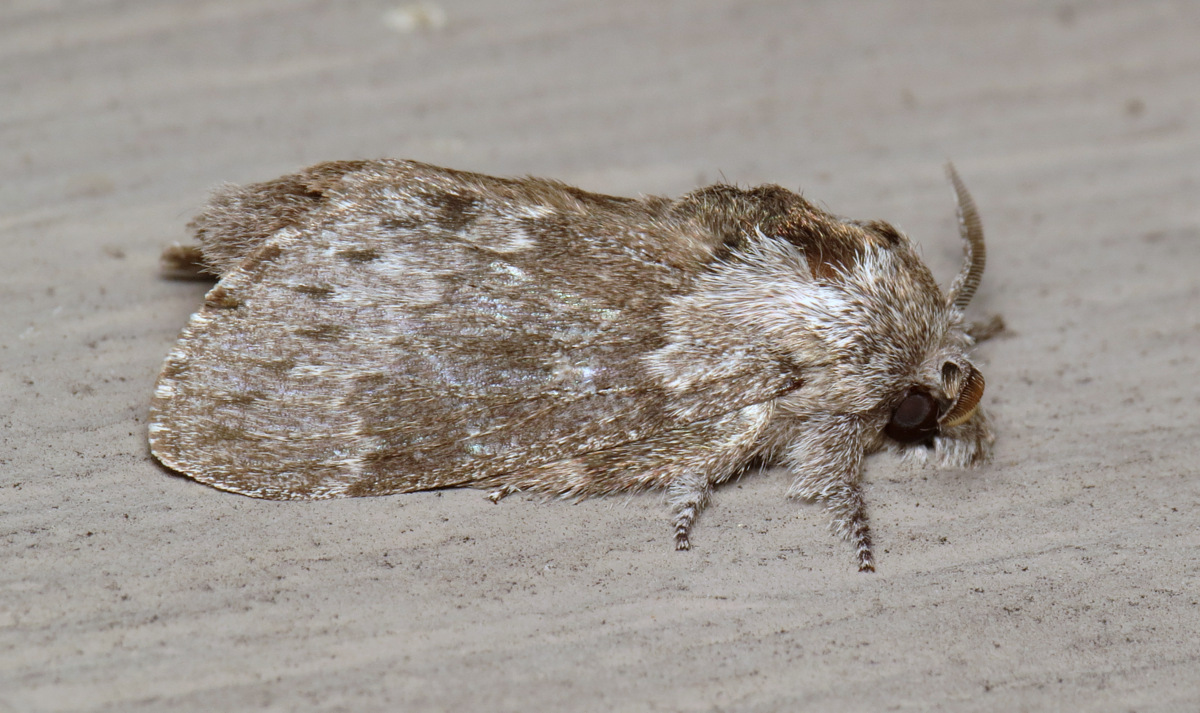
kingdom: Animalia
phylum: Arthropoda
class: Insecta
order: Lepidoptera
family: Lasiocampidae
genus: Heteropacha
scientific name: Heteropacha rileyana
